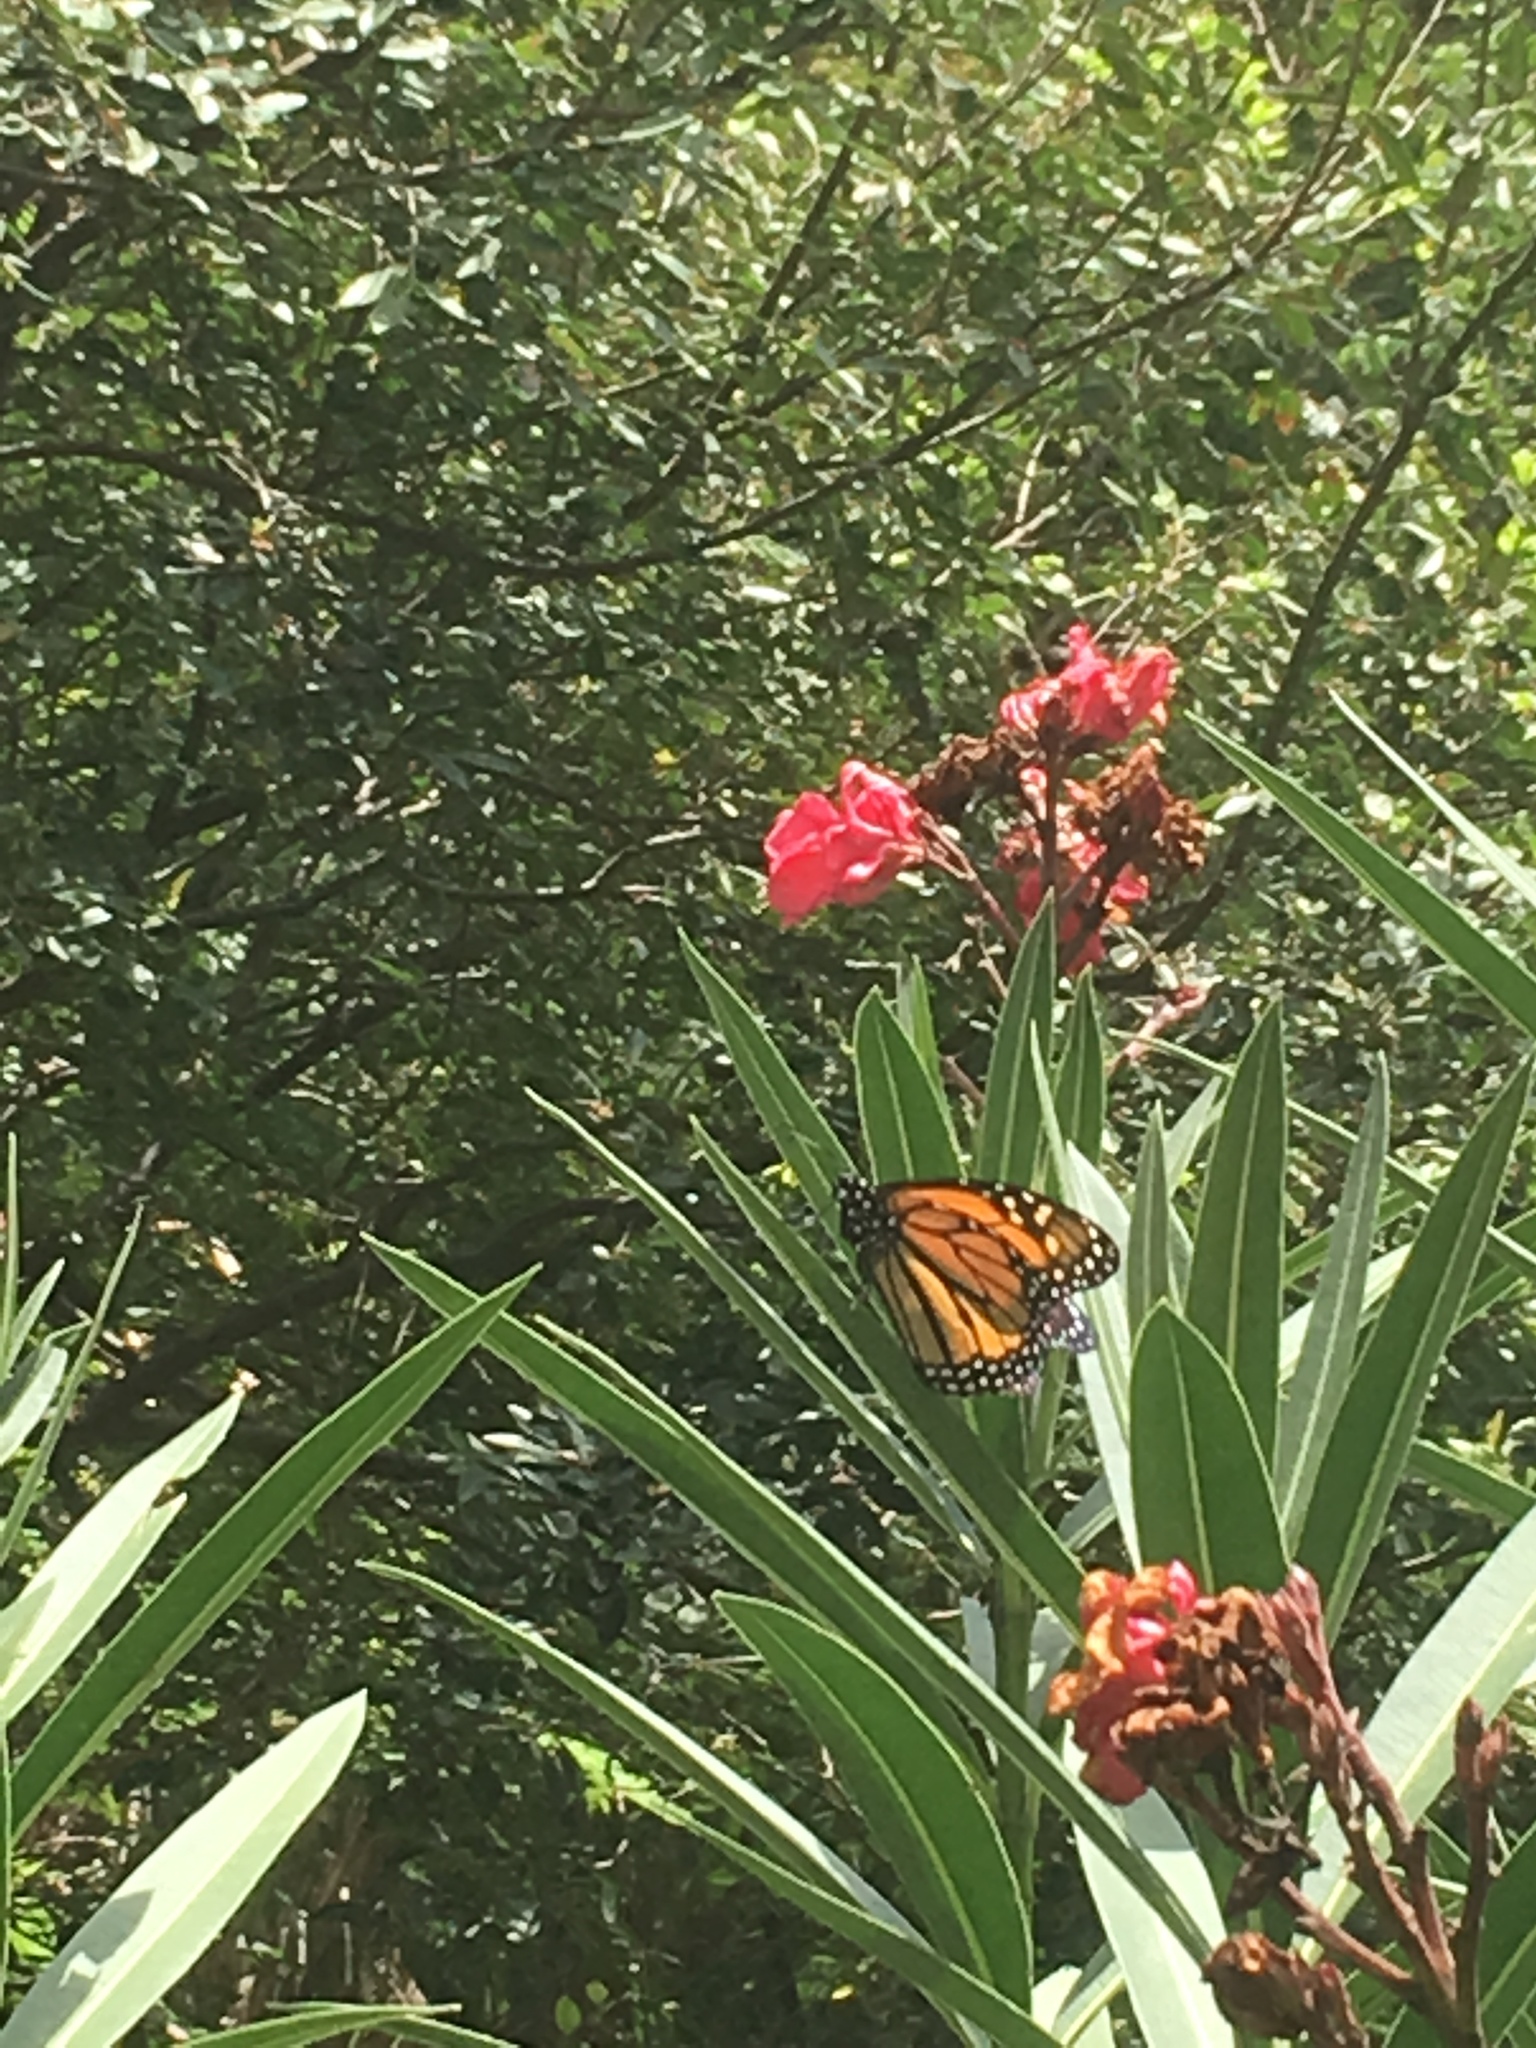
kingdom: Animalia
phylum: Arthropoda
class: Insecta
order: Lepidoptera
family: Nymphalidae
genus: Danaus
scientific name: Danaus plexippus
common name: Monarch
